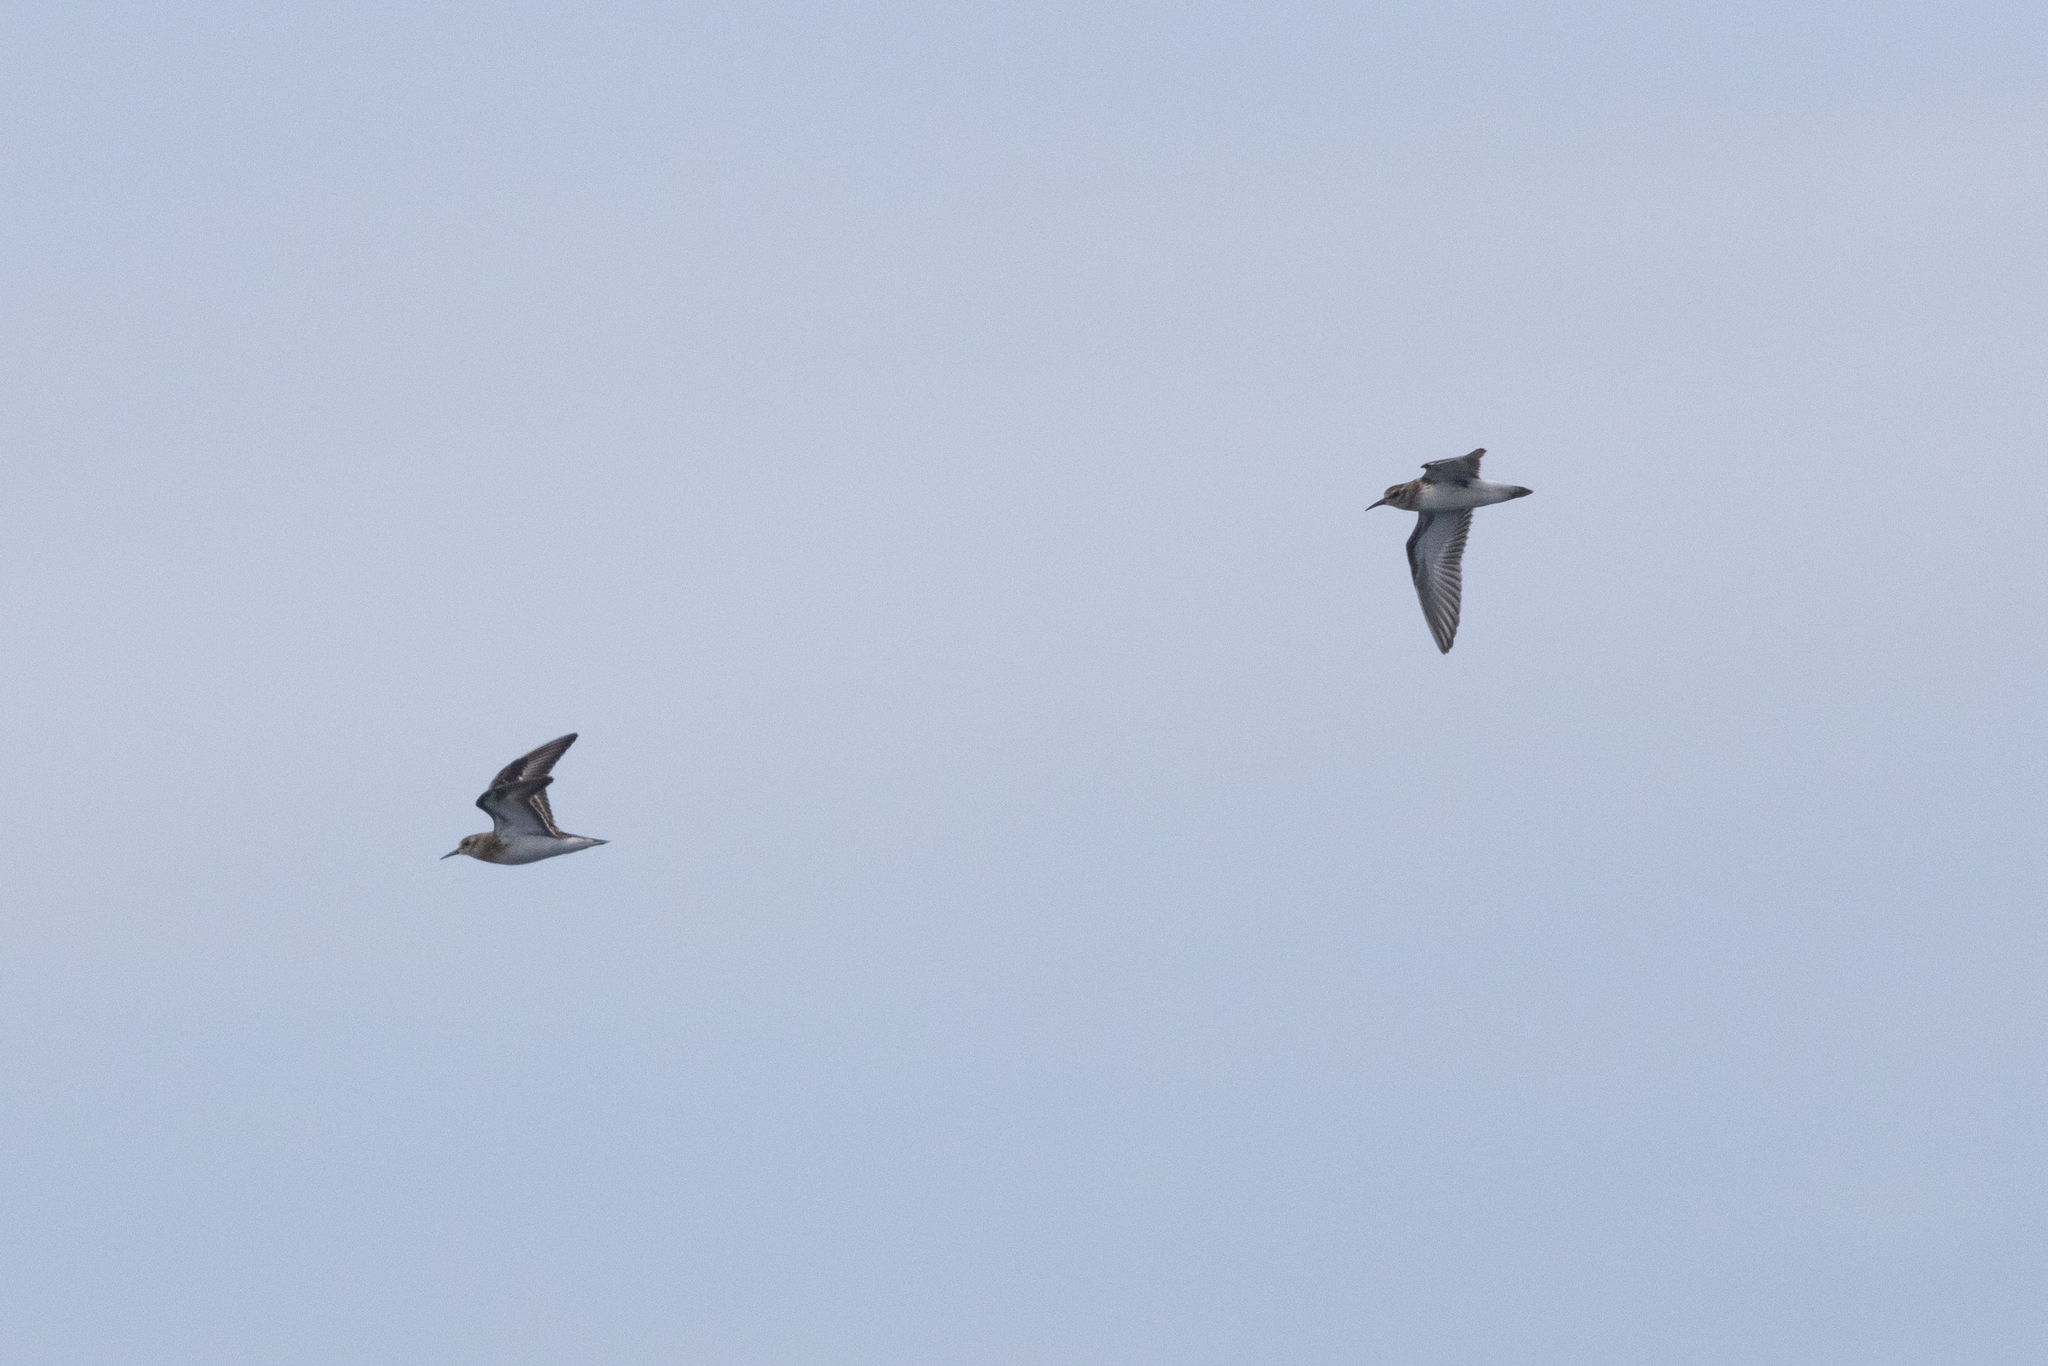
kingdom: Animalia
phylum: Chordata
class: Aves
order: Charadriiformes
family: Scolopacidae
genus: Calidris
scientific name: Calidris minutilla
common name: Least sandpiper
